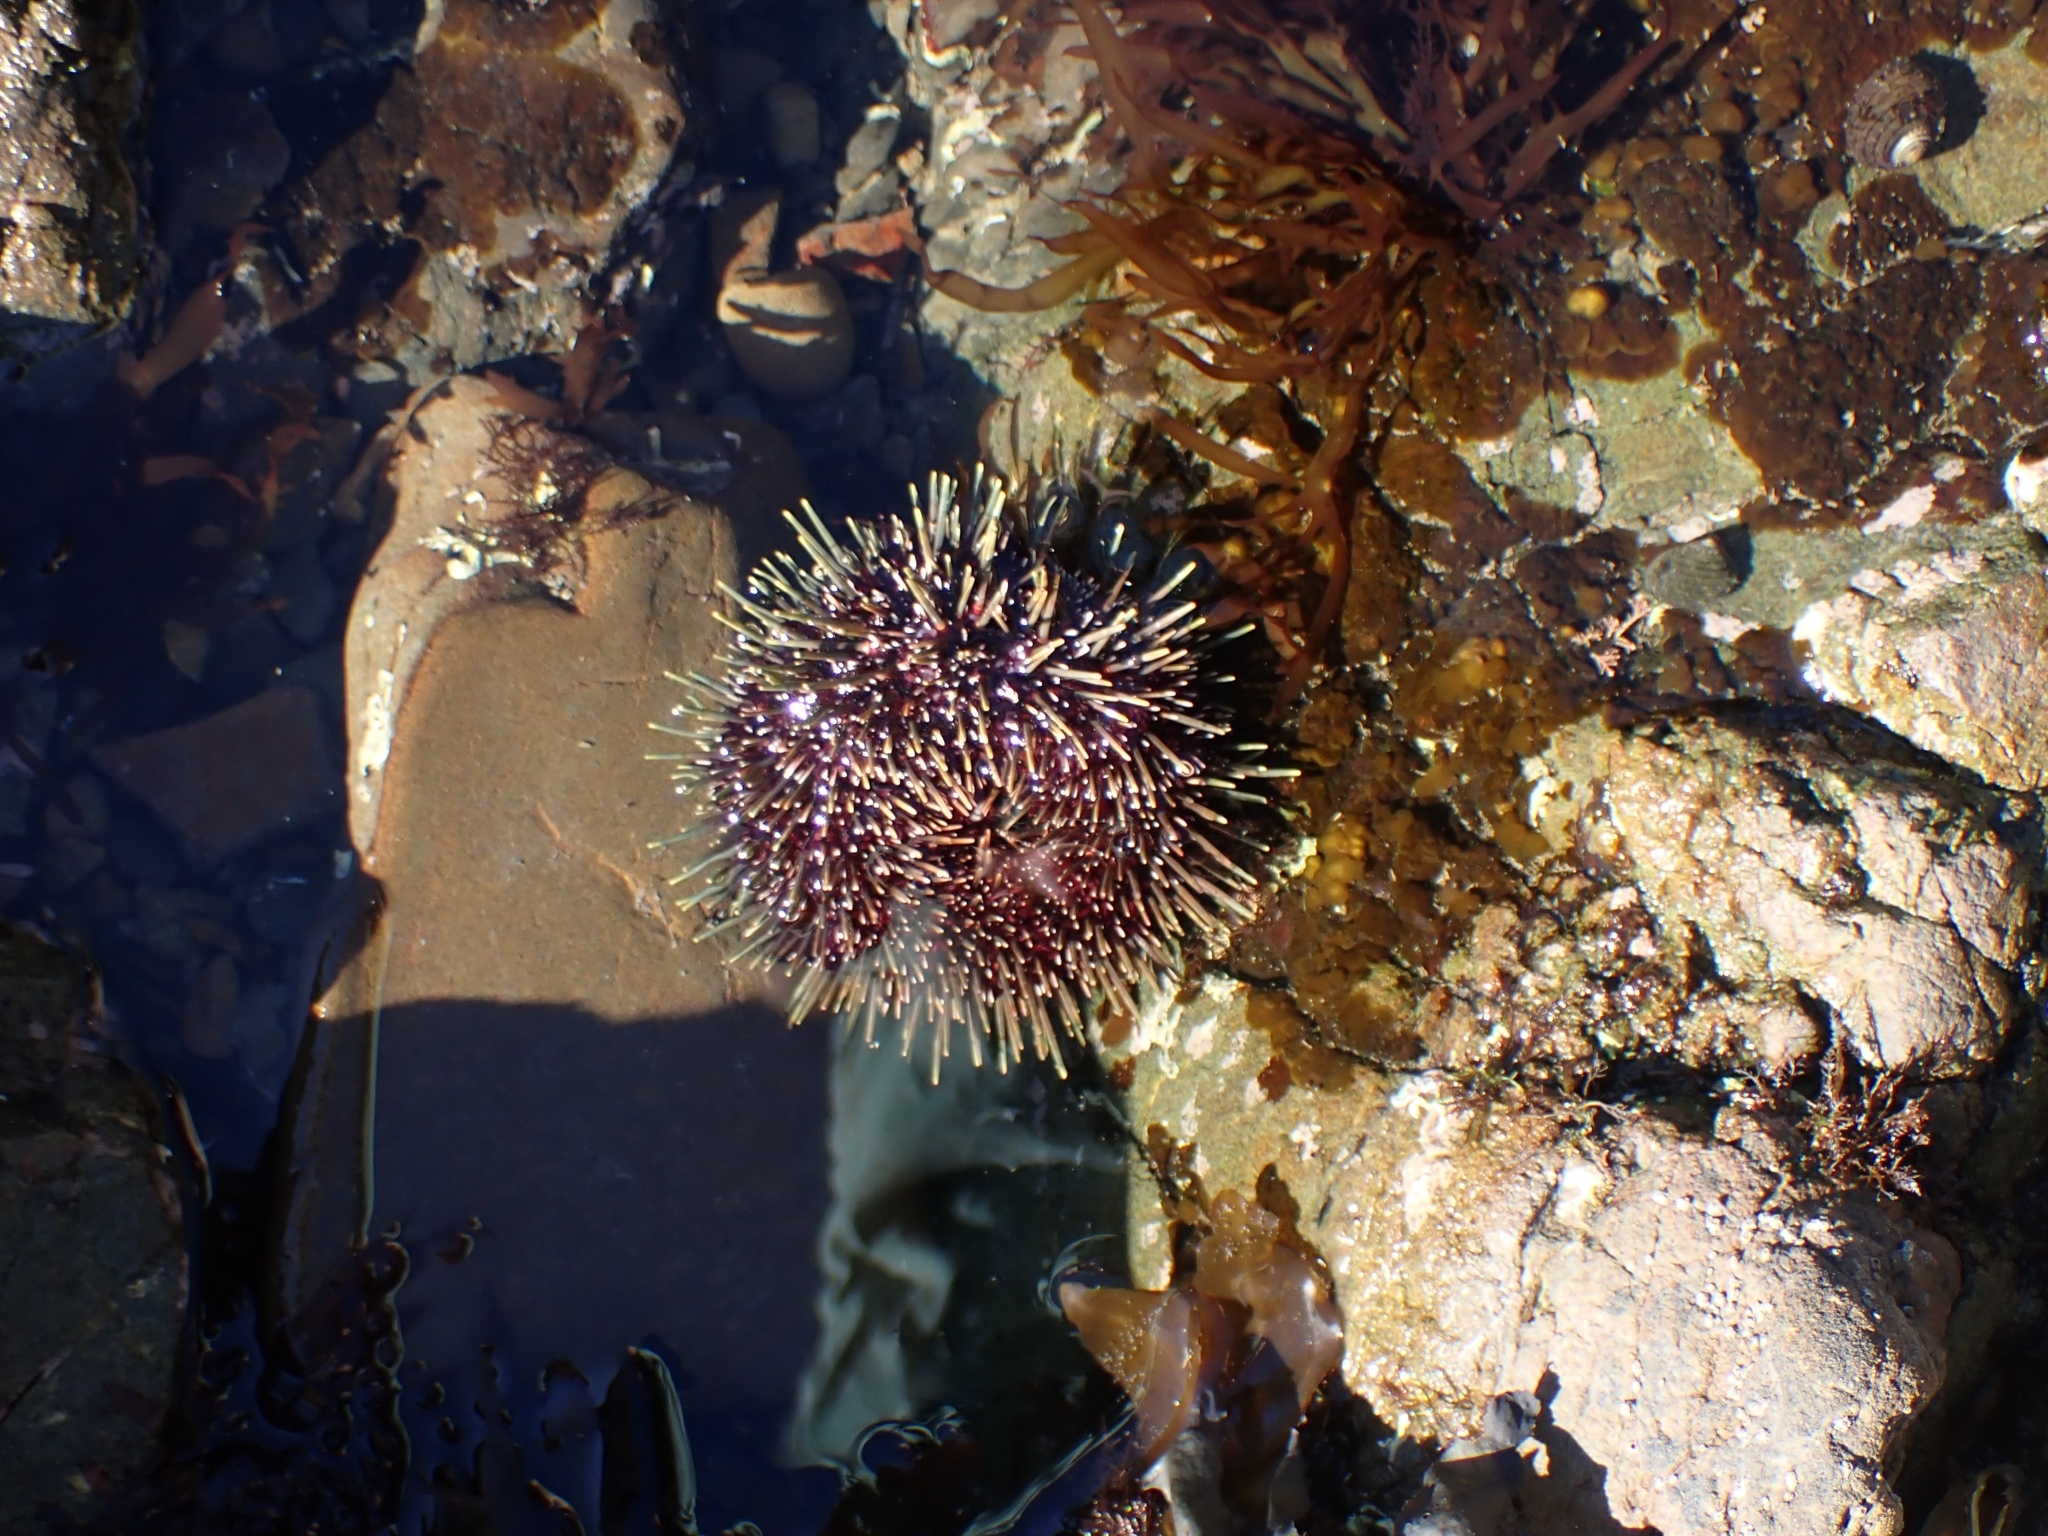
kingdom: Animalia
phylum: Echinodermata
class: Echinoidea
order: Camarodonta
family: Echinometridae
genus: Evechinus
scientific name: Evechinus chloroticus
